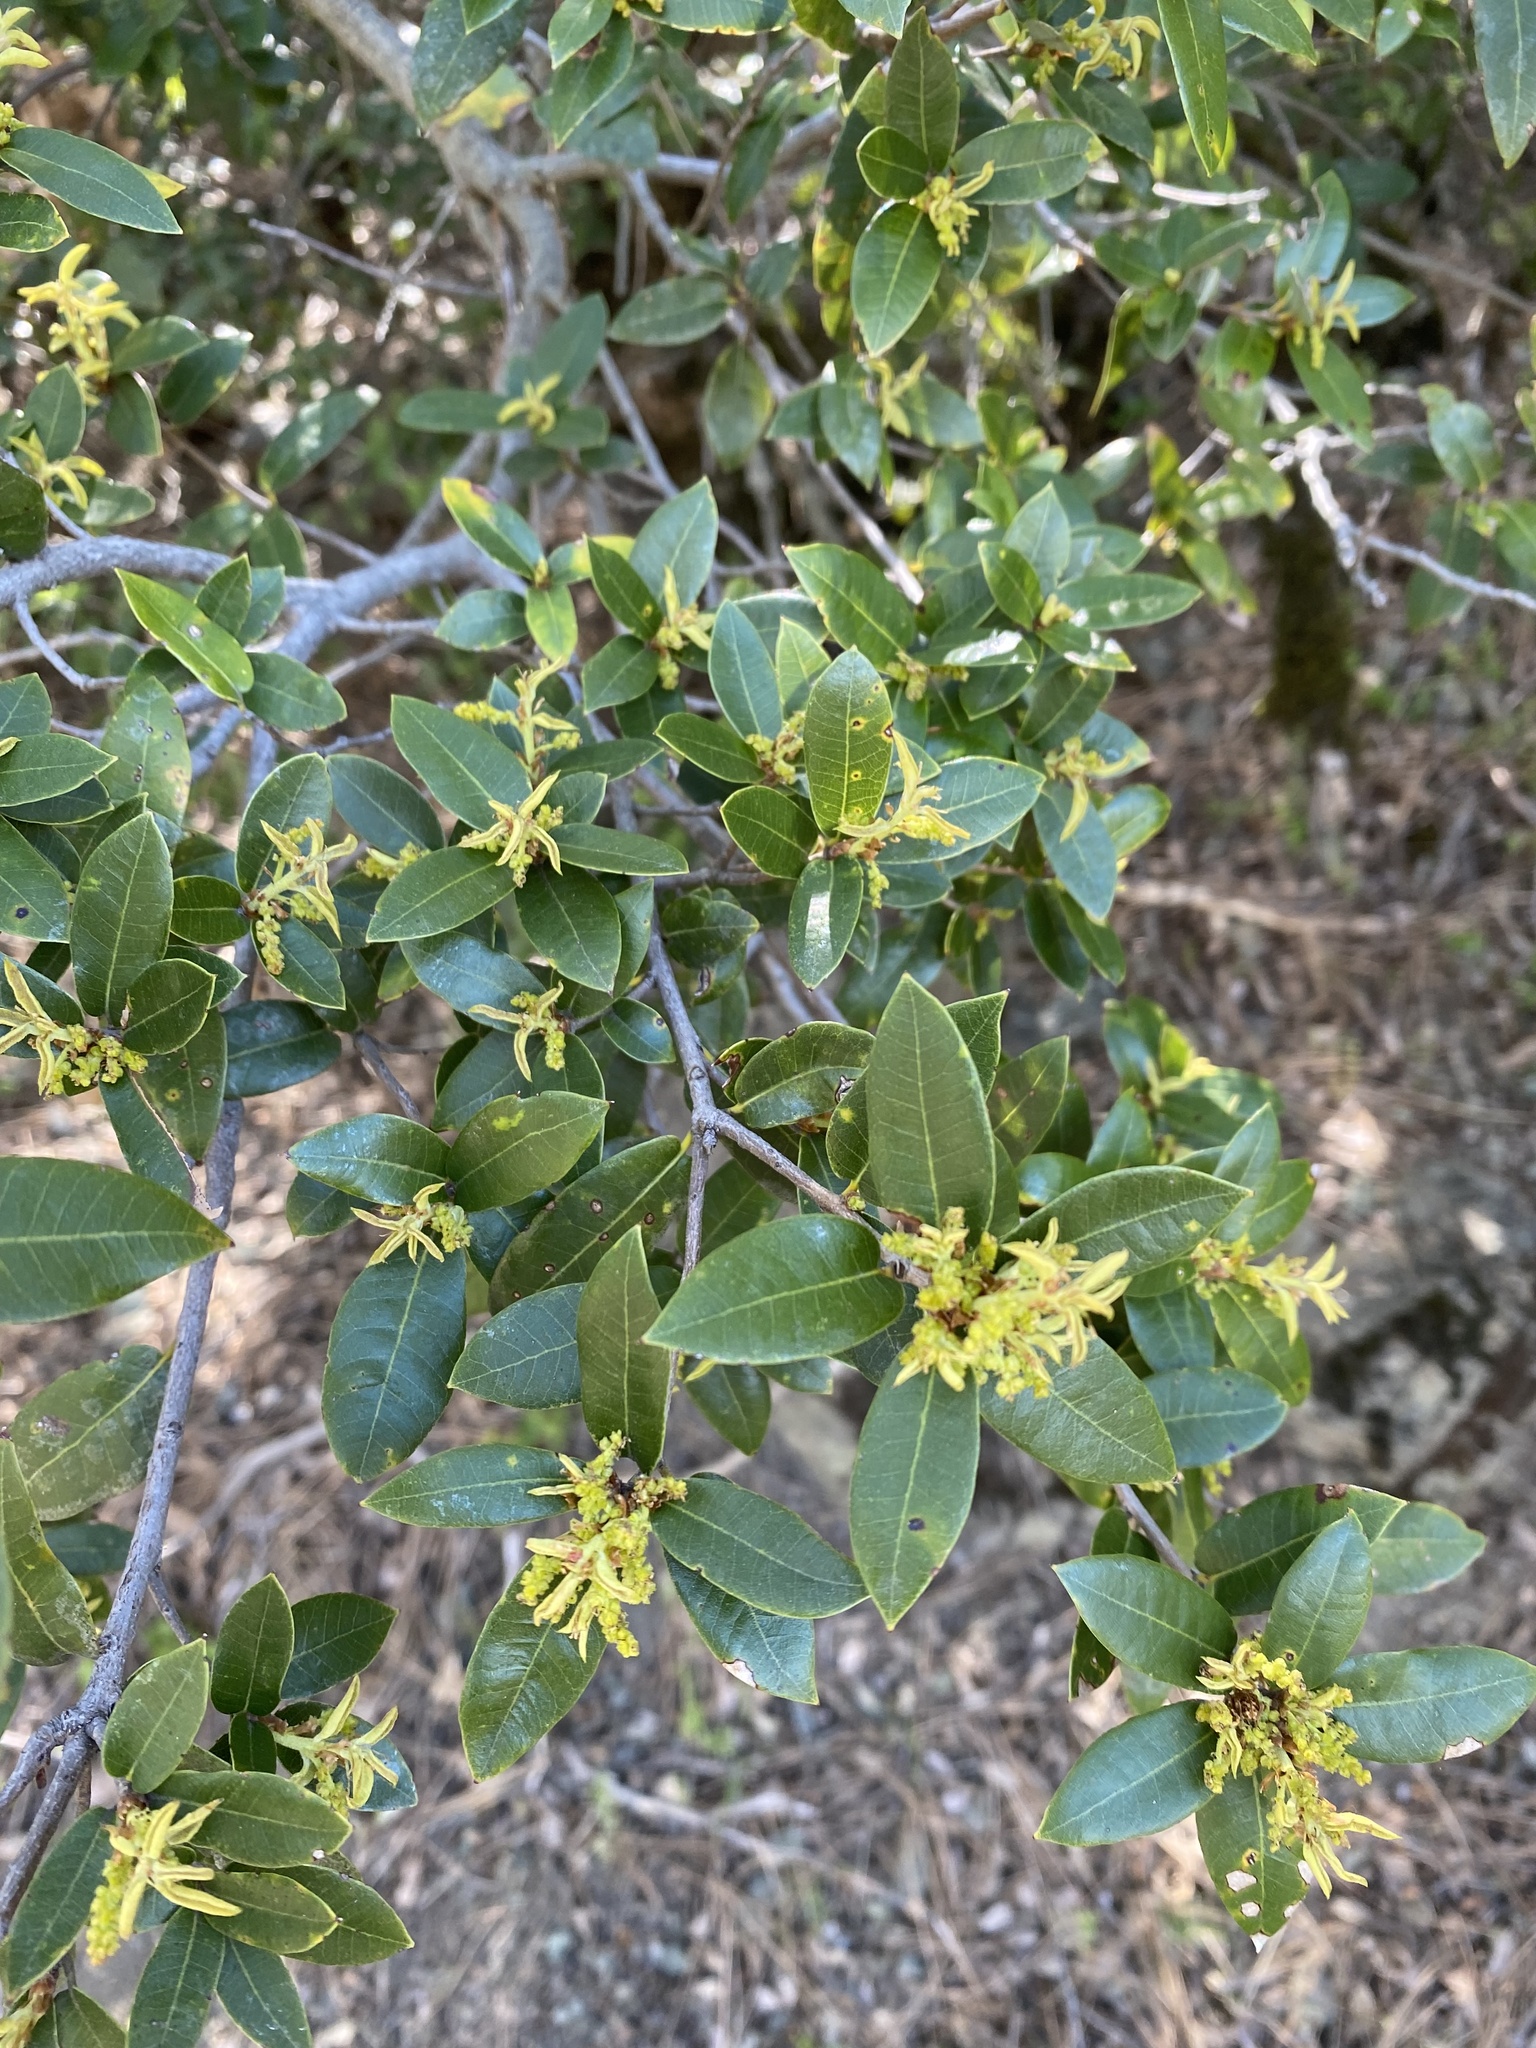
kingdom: Plantae
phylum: Tracheophyta
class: Magnoliopsida
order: Fagales
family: Fagaceae
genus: Quercus
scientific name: Quercus chrysolepis
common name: Canyon live oak
